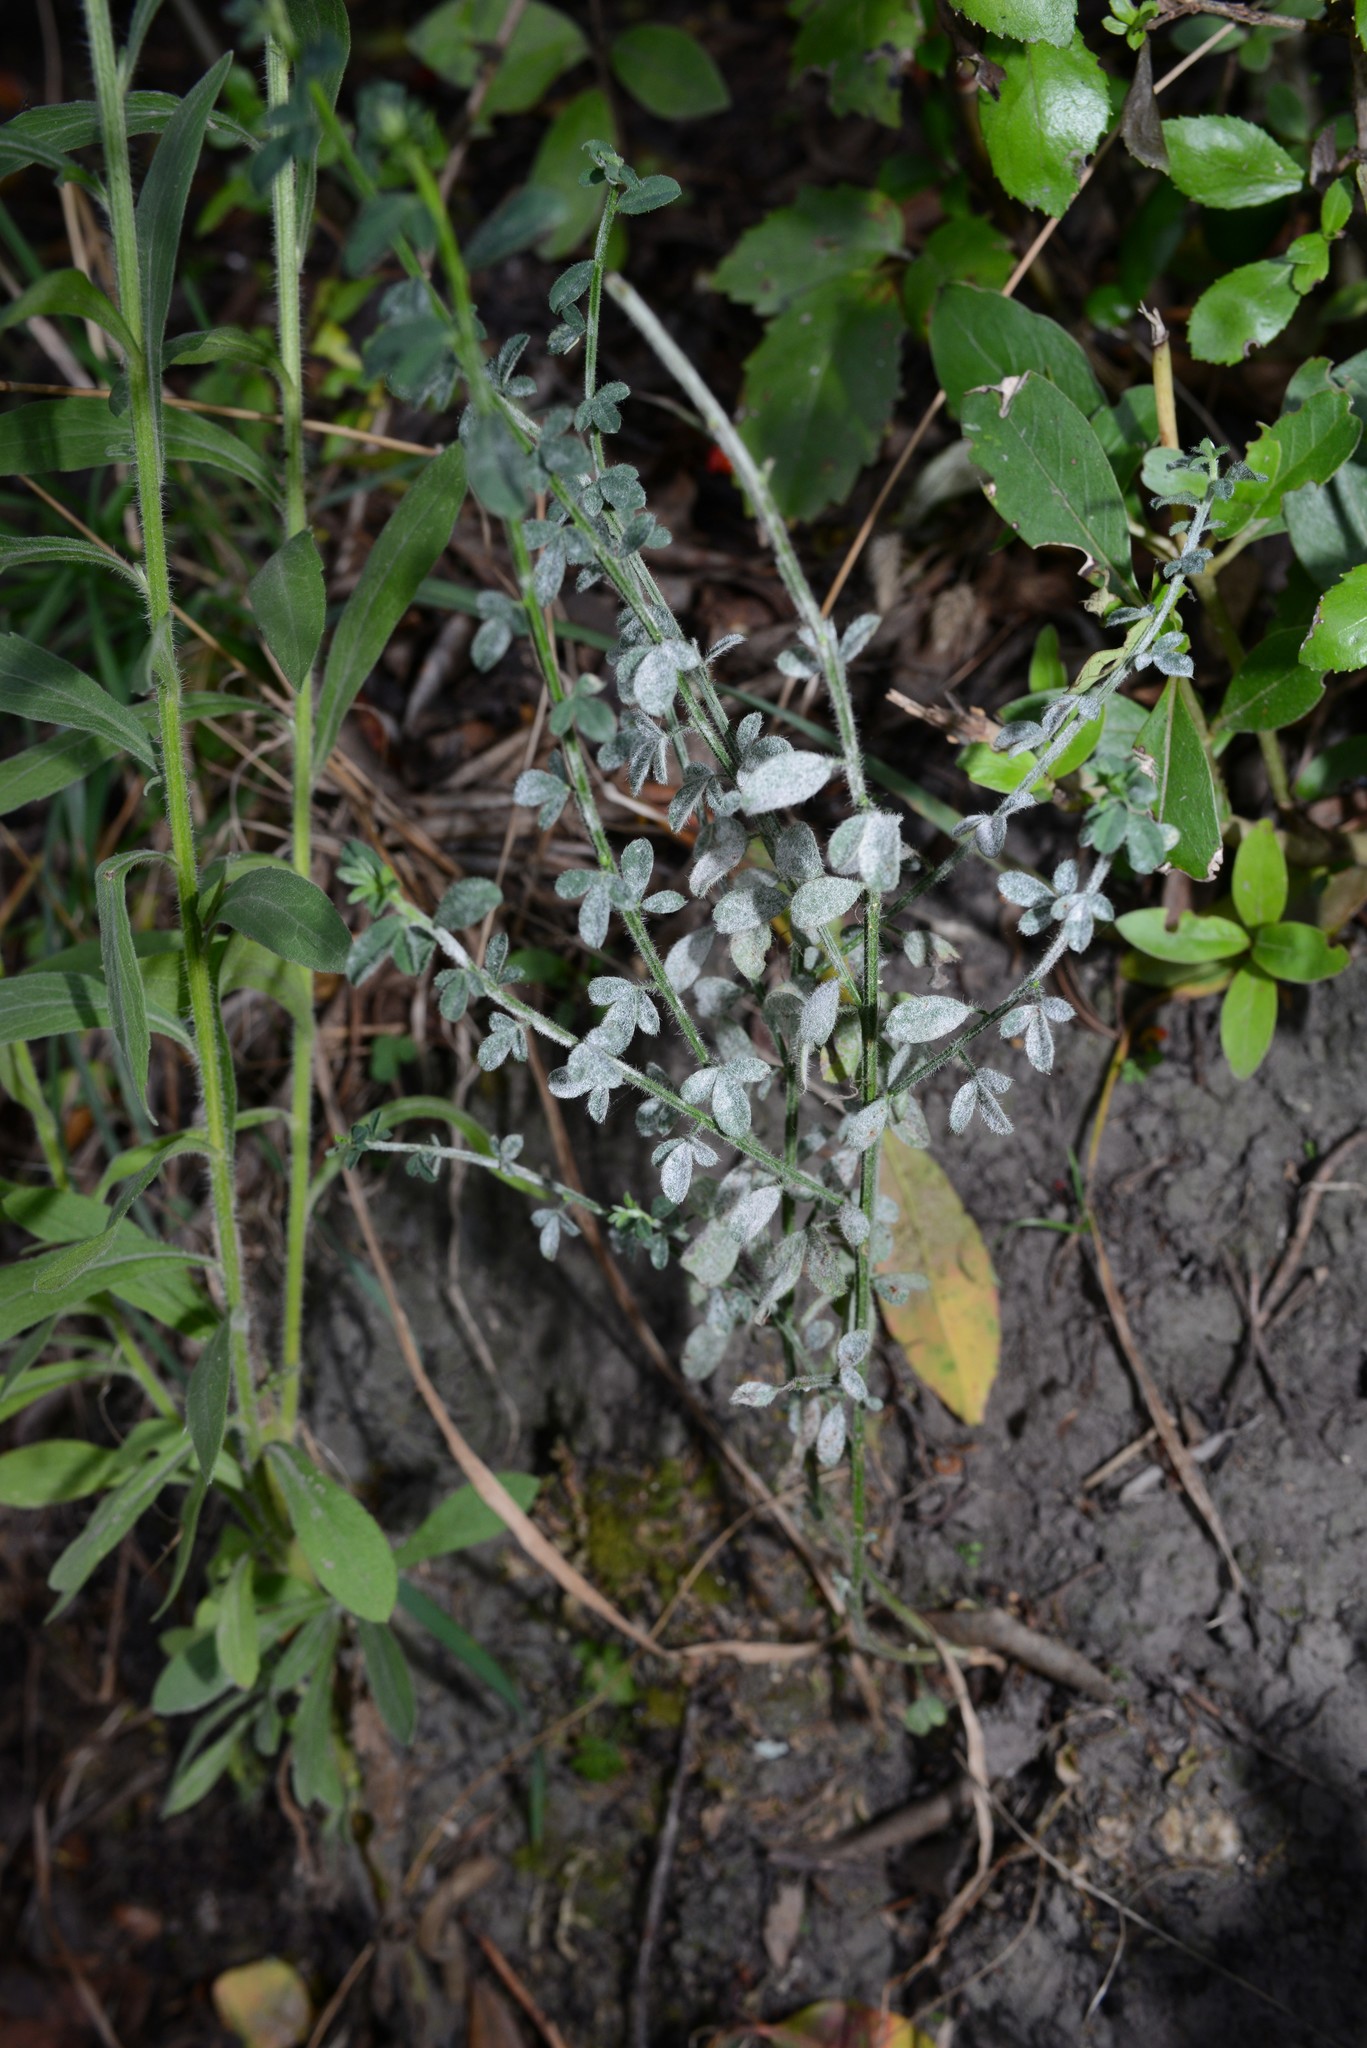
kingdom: Plantae
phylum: Tracheophyta
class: Magnoliopsida
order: Fabales
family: Fabaceae
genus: Cytisus
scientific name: Cytisus scoparius
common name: Scotch broom
